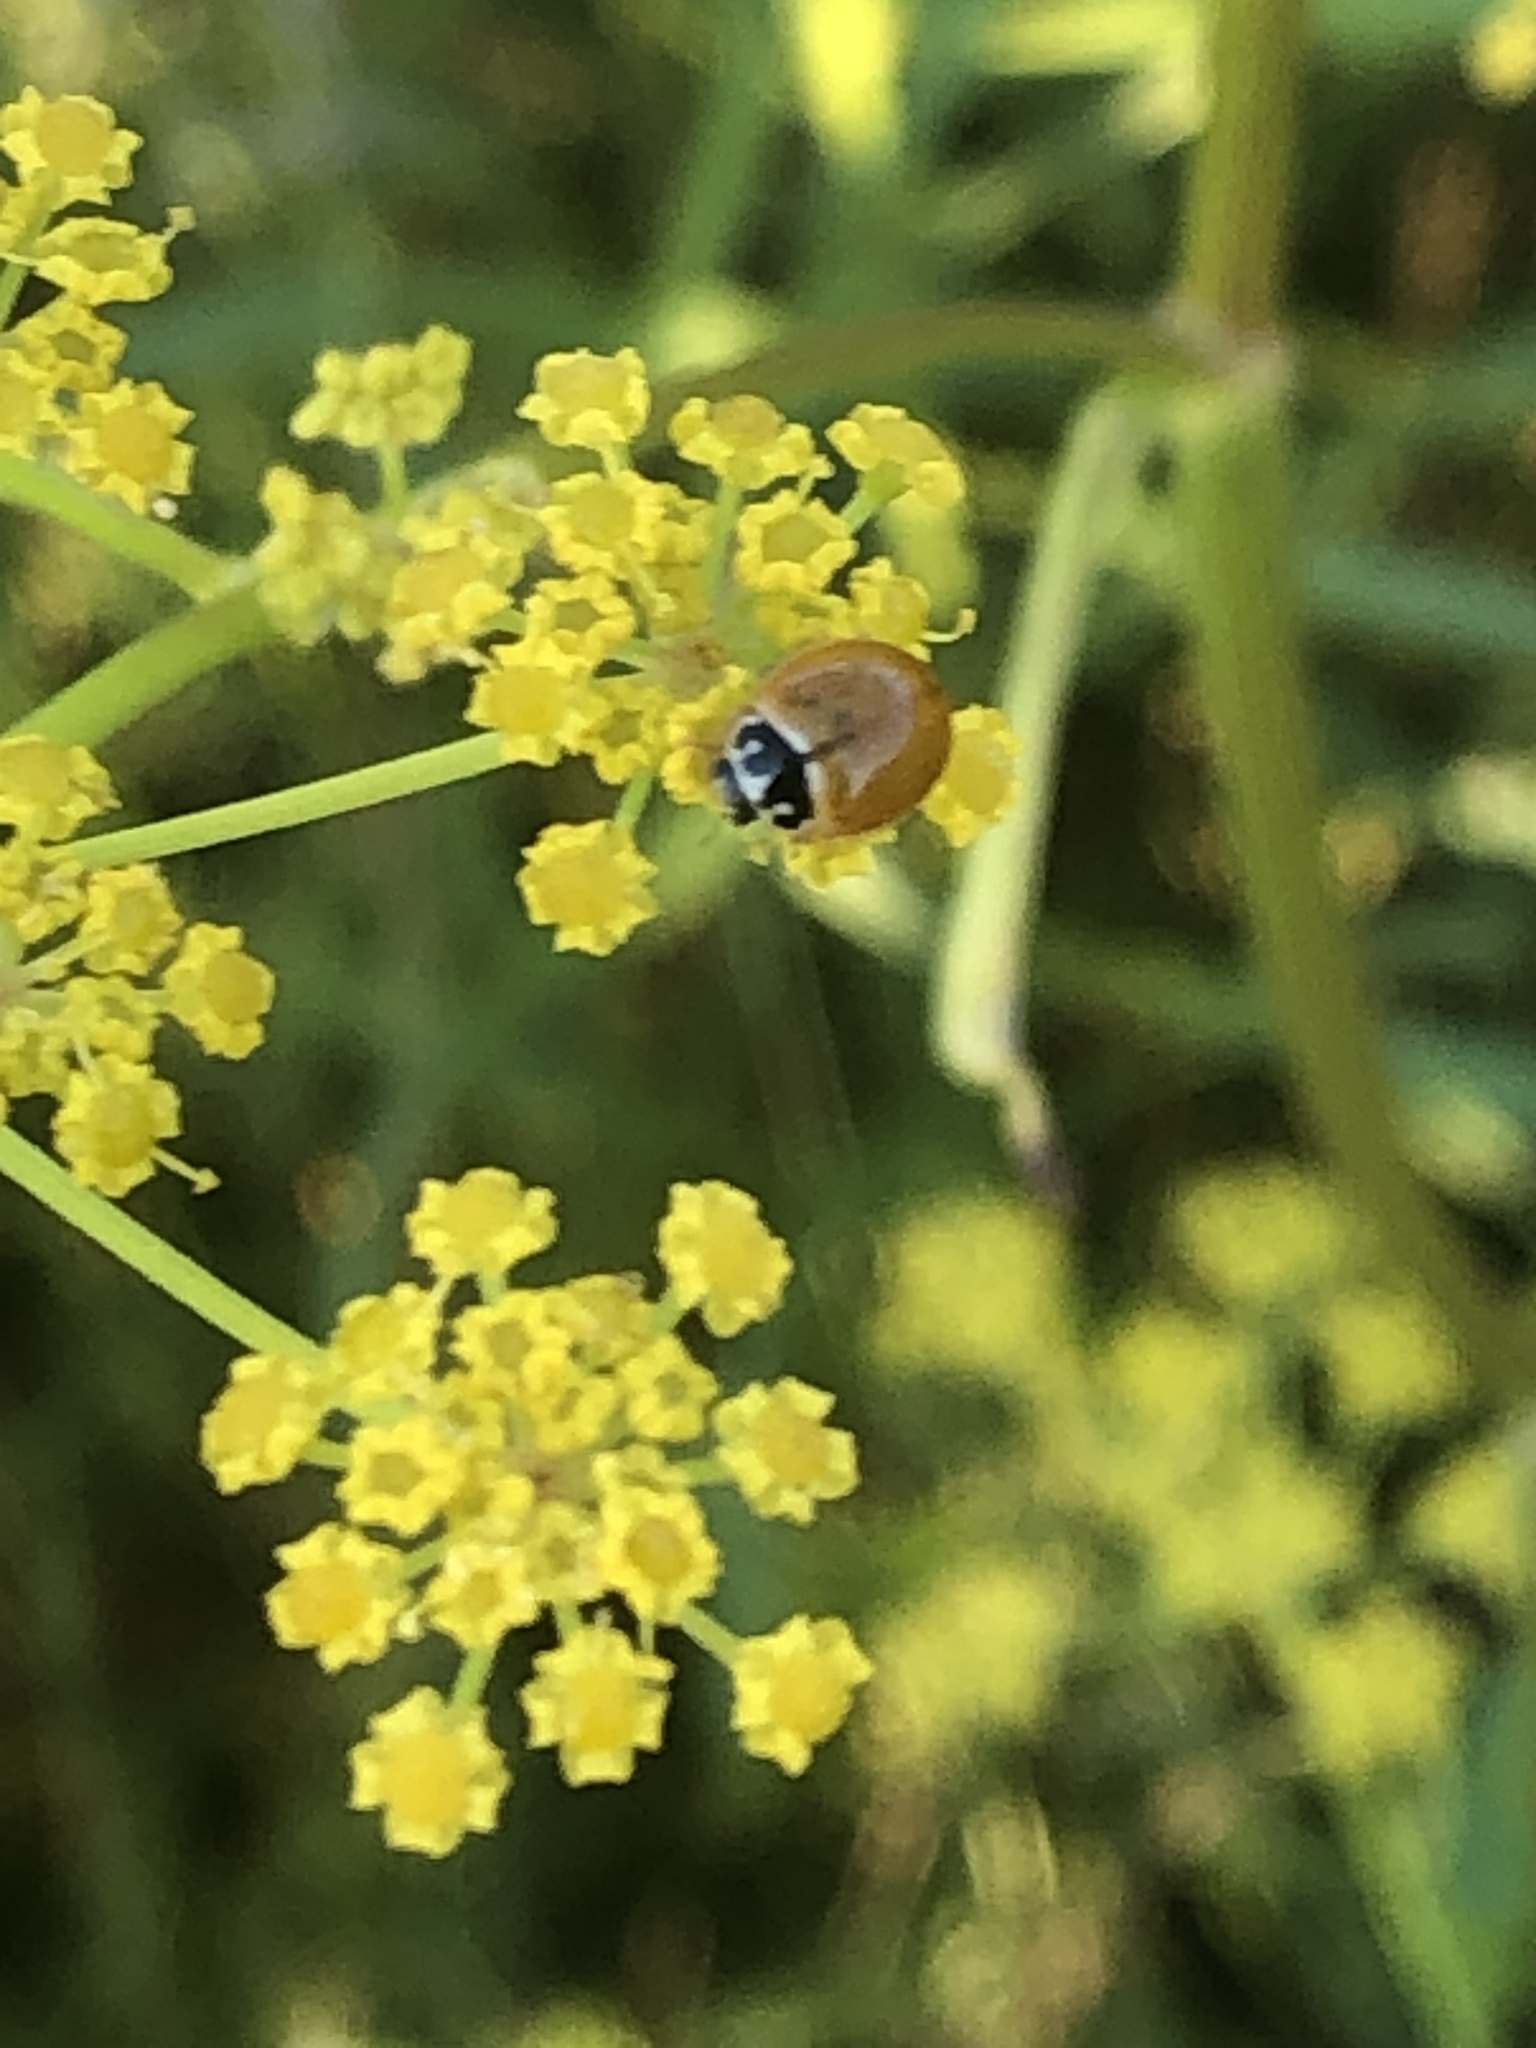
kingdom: Animalia
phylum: Arthropoda
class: Insecta
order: Coleoptera
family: Coccinellidae
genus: Cycloneda
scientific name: Cycloneda munda
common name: Polished lady beetle
